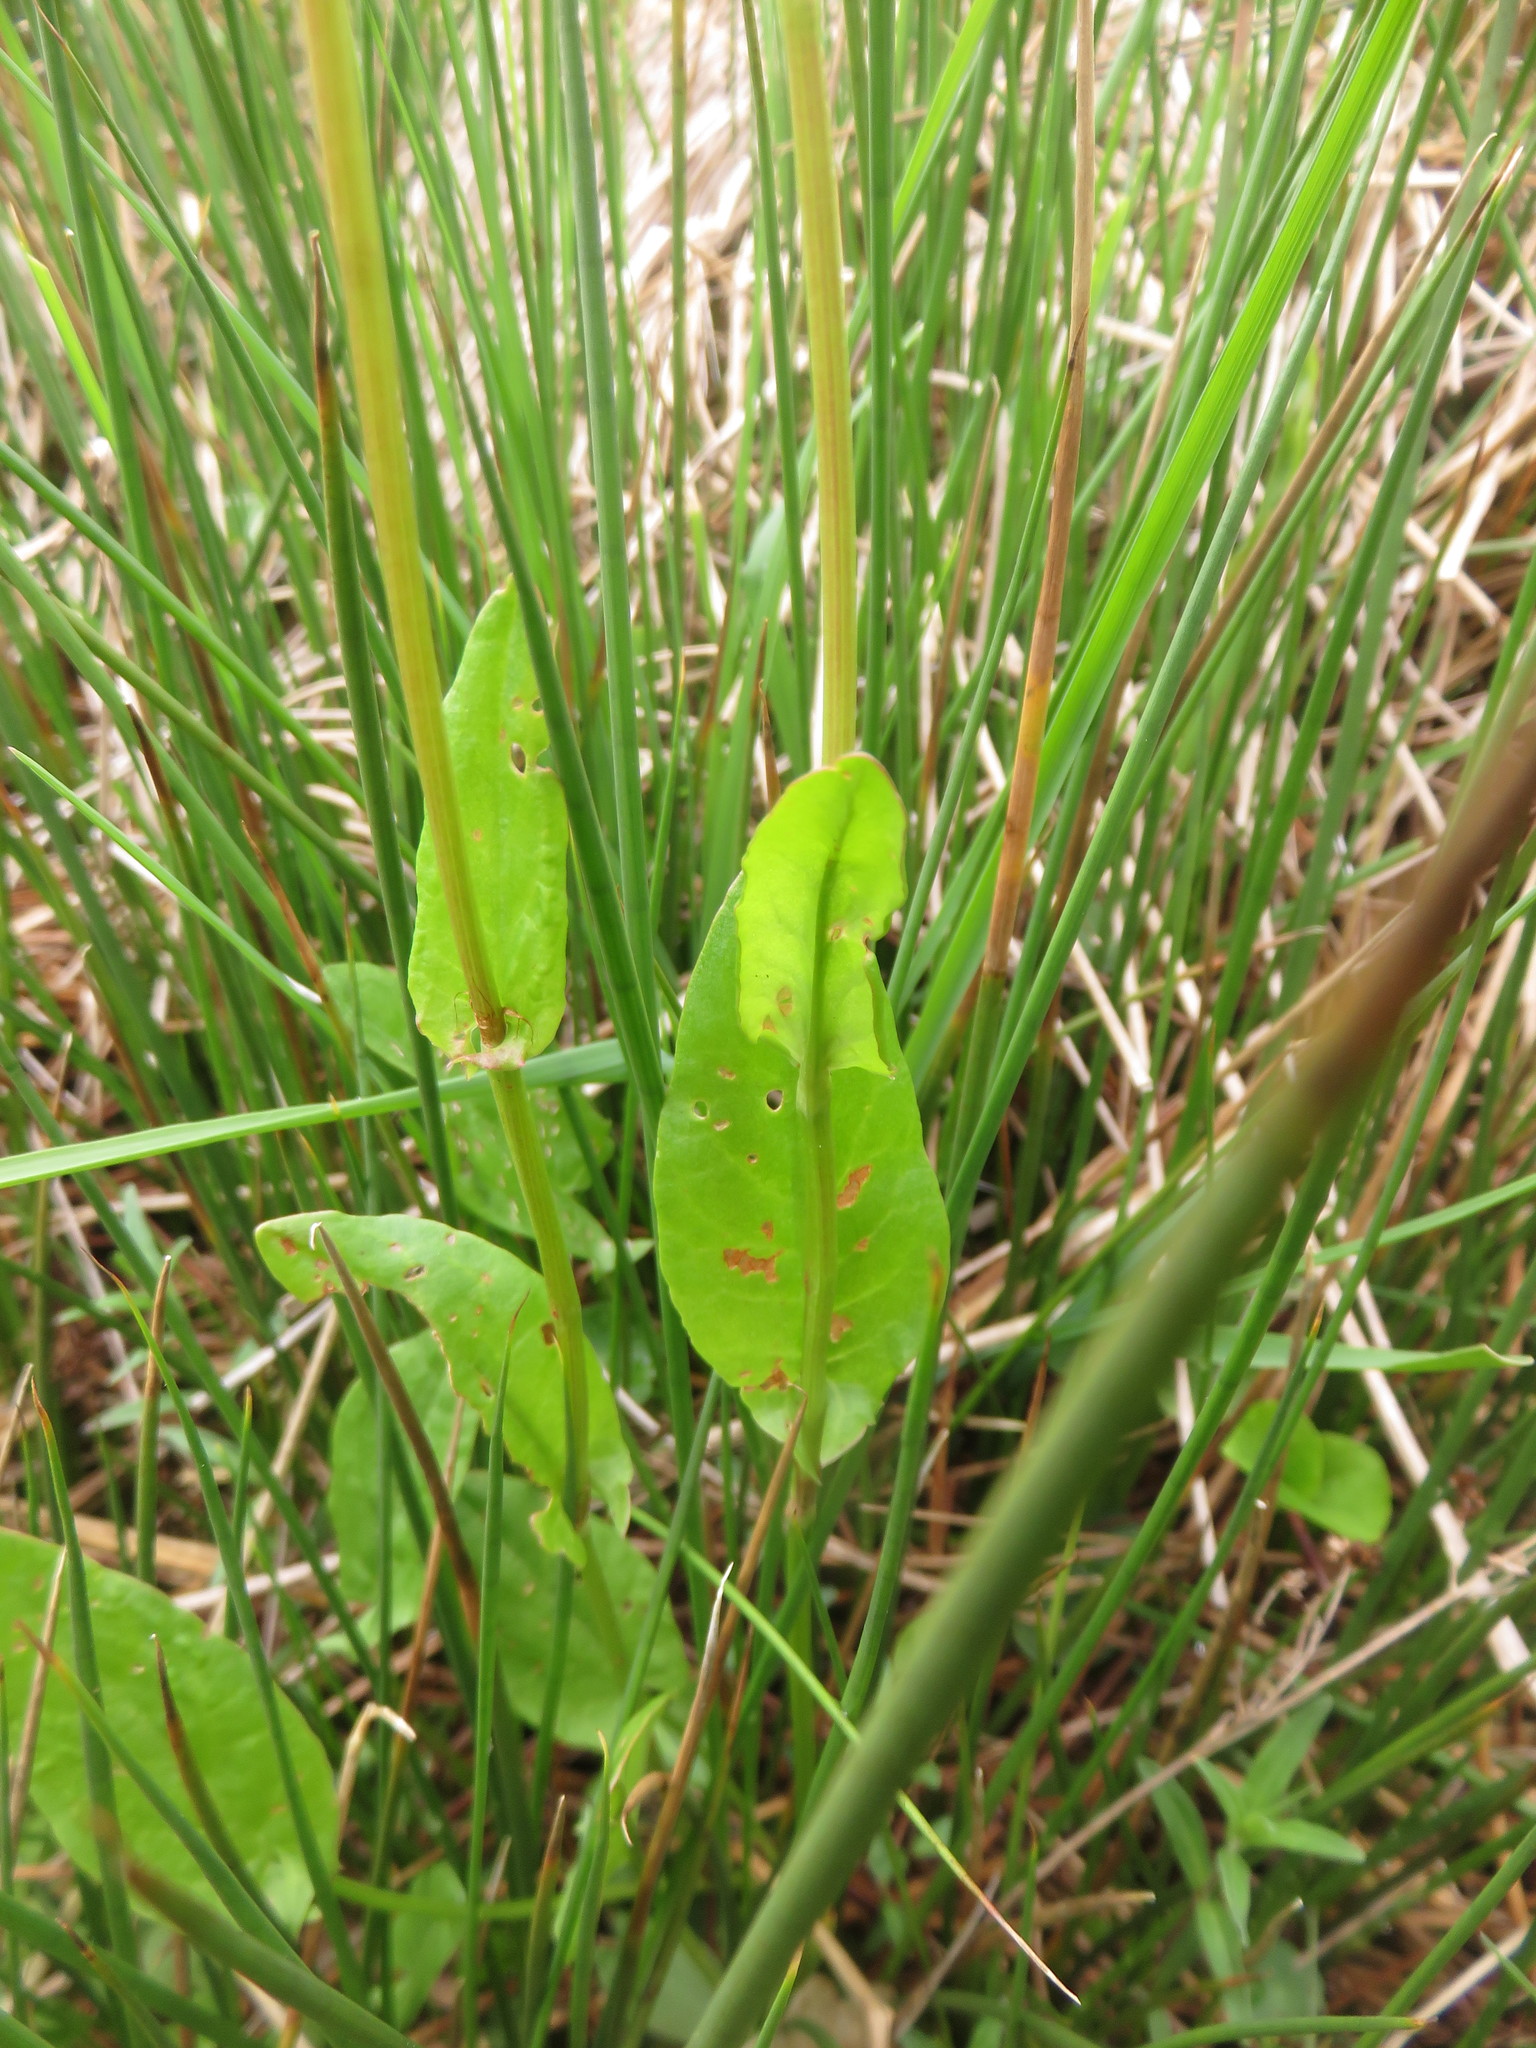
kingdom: Plantae
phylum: Tracheophyta
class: Magnoliopsida
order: Caryophyllales
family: Polygonaceae
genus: Rumex
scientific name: Rumex acetosa
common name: Garden sorrel
